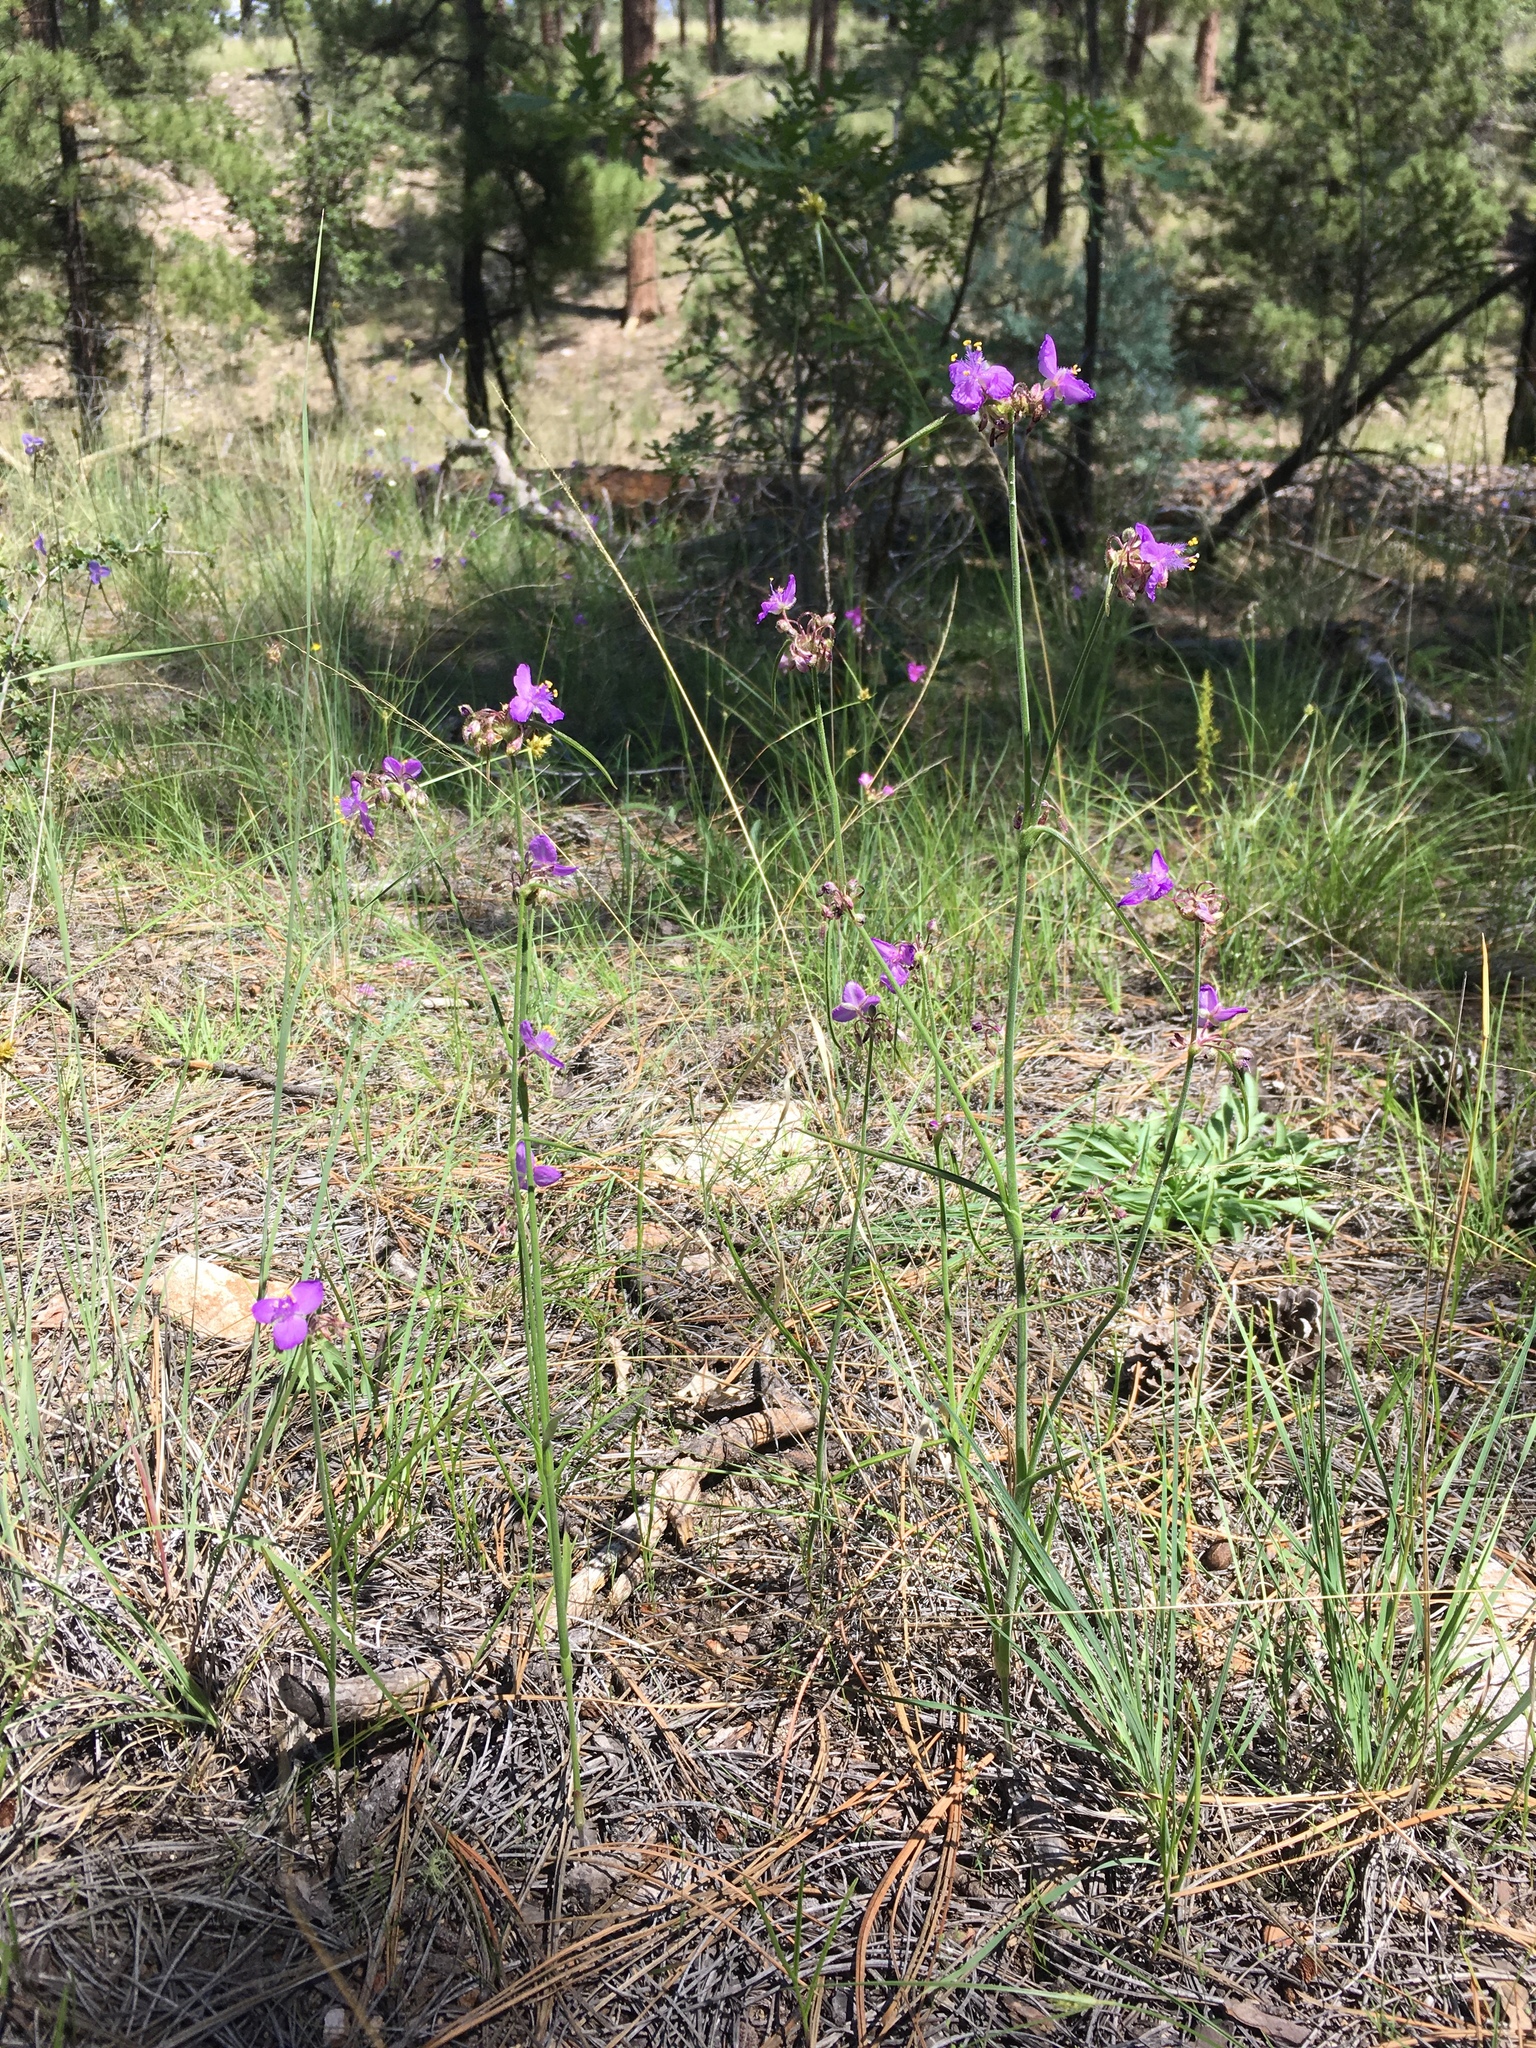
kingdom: Plantae
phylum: Tracheophyta
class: Liliopsida
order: Commelinales
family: Commelinaceae
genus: Tradescantia
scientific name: Tradescantia pinetorum
